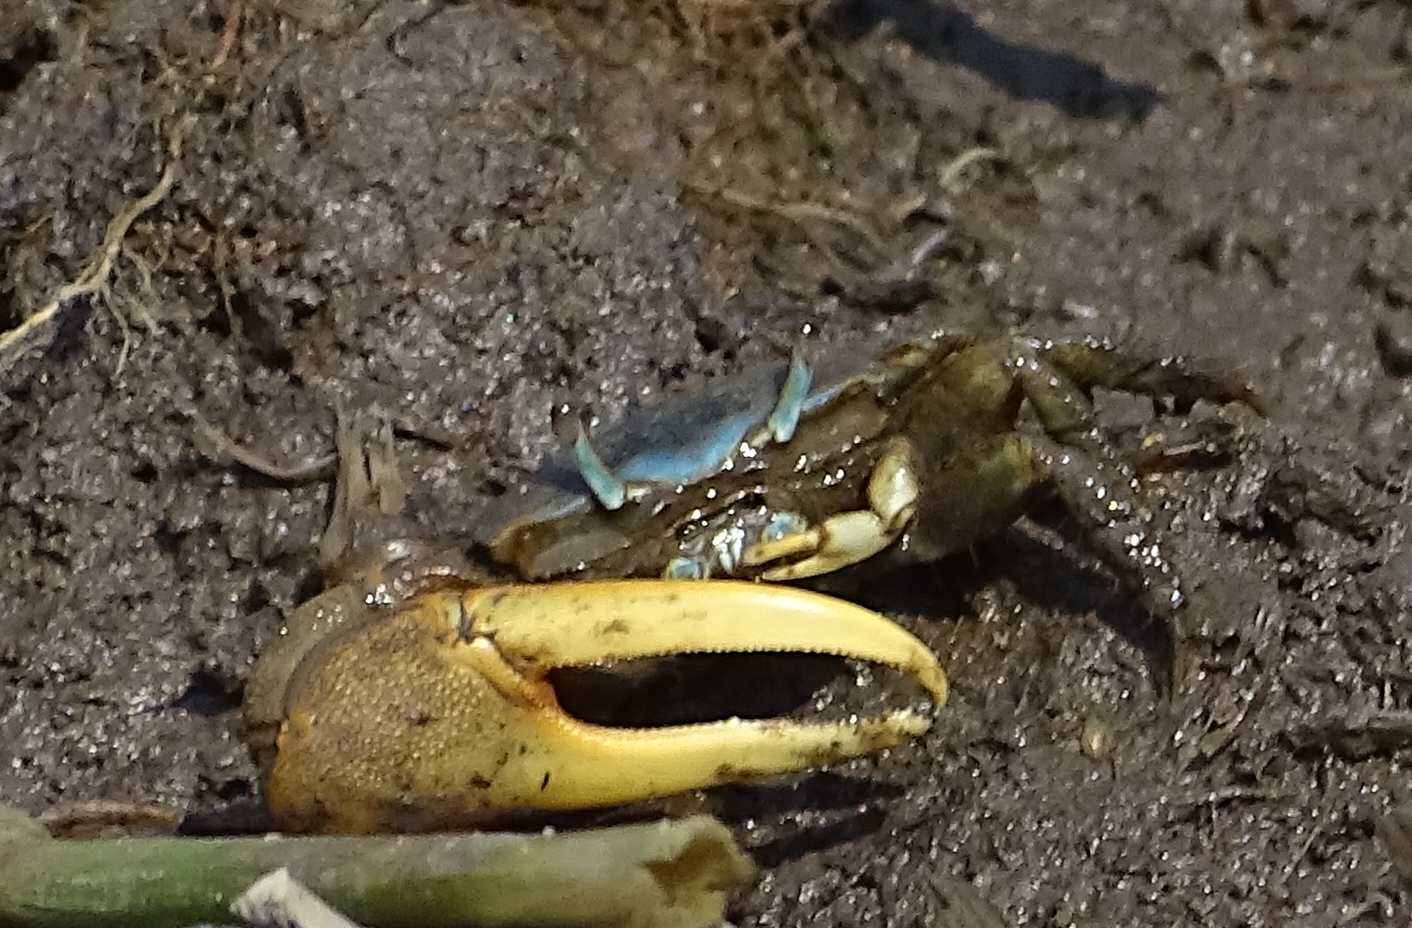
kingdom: Animalia
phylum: Arthropoda
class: Malacostraca
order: Decapoda
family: Ocypodidae
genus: Minuca
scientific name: Minuca pugnax
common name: Mud fiddler crab
